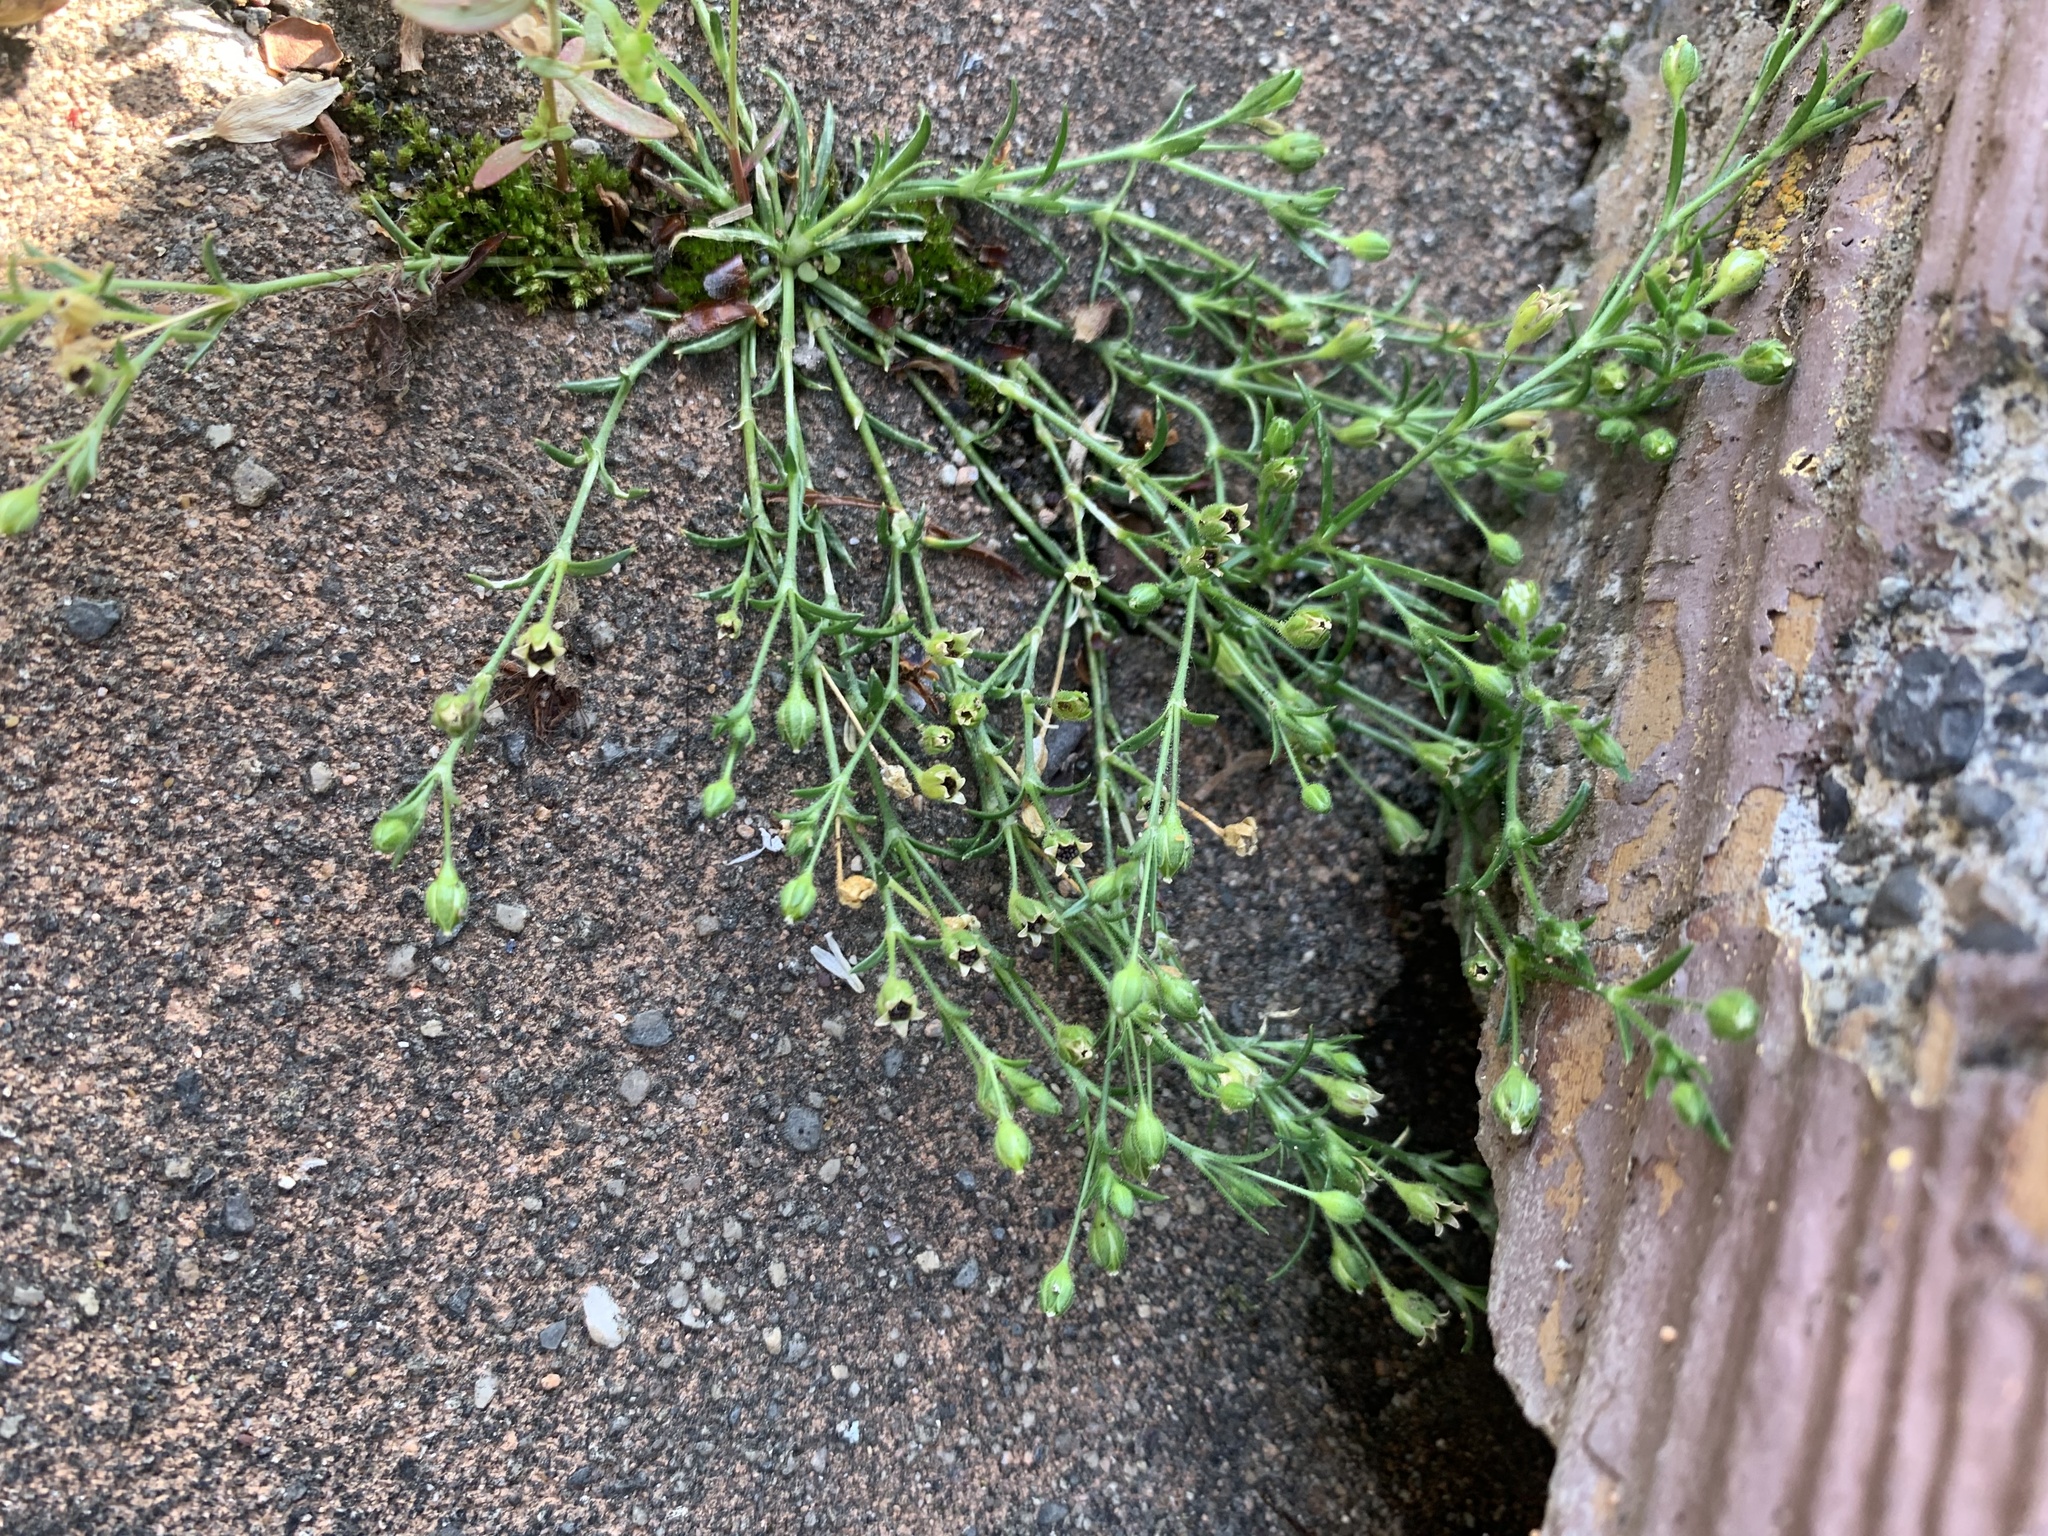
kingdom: Plantae
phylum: Tracheophyta
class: Magnoliopsida
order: Caryophyllales
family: Caryophyllaceae
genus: Sagina
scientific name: Sagina japonica
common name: Japanese pearlwort
